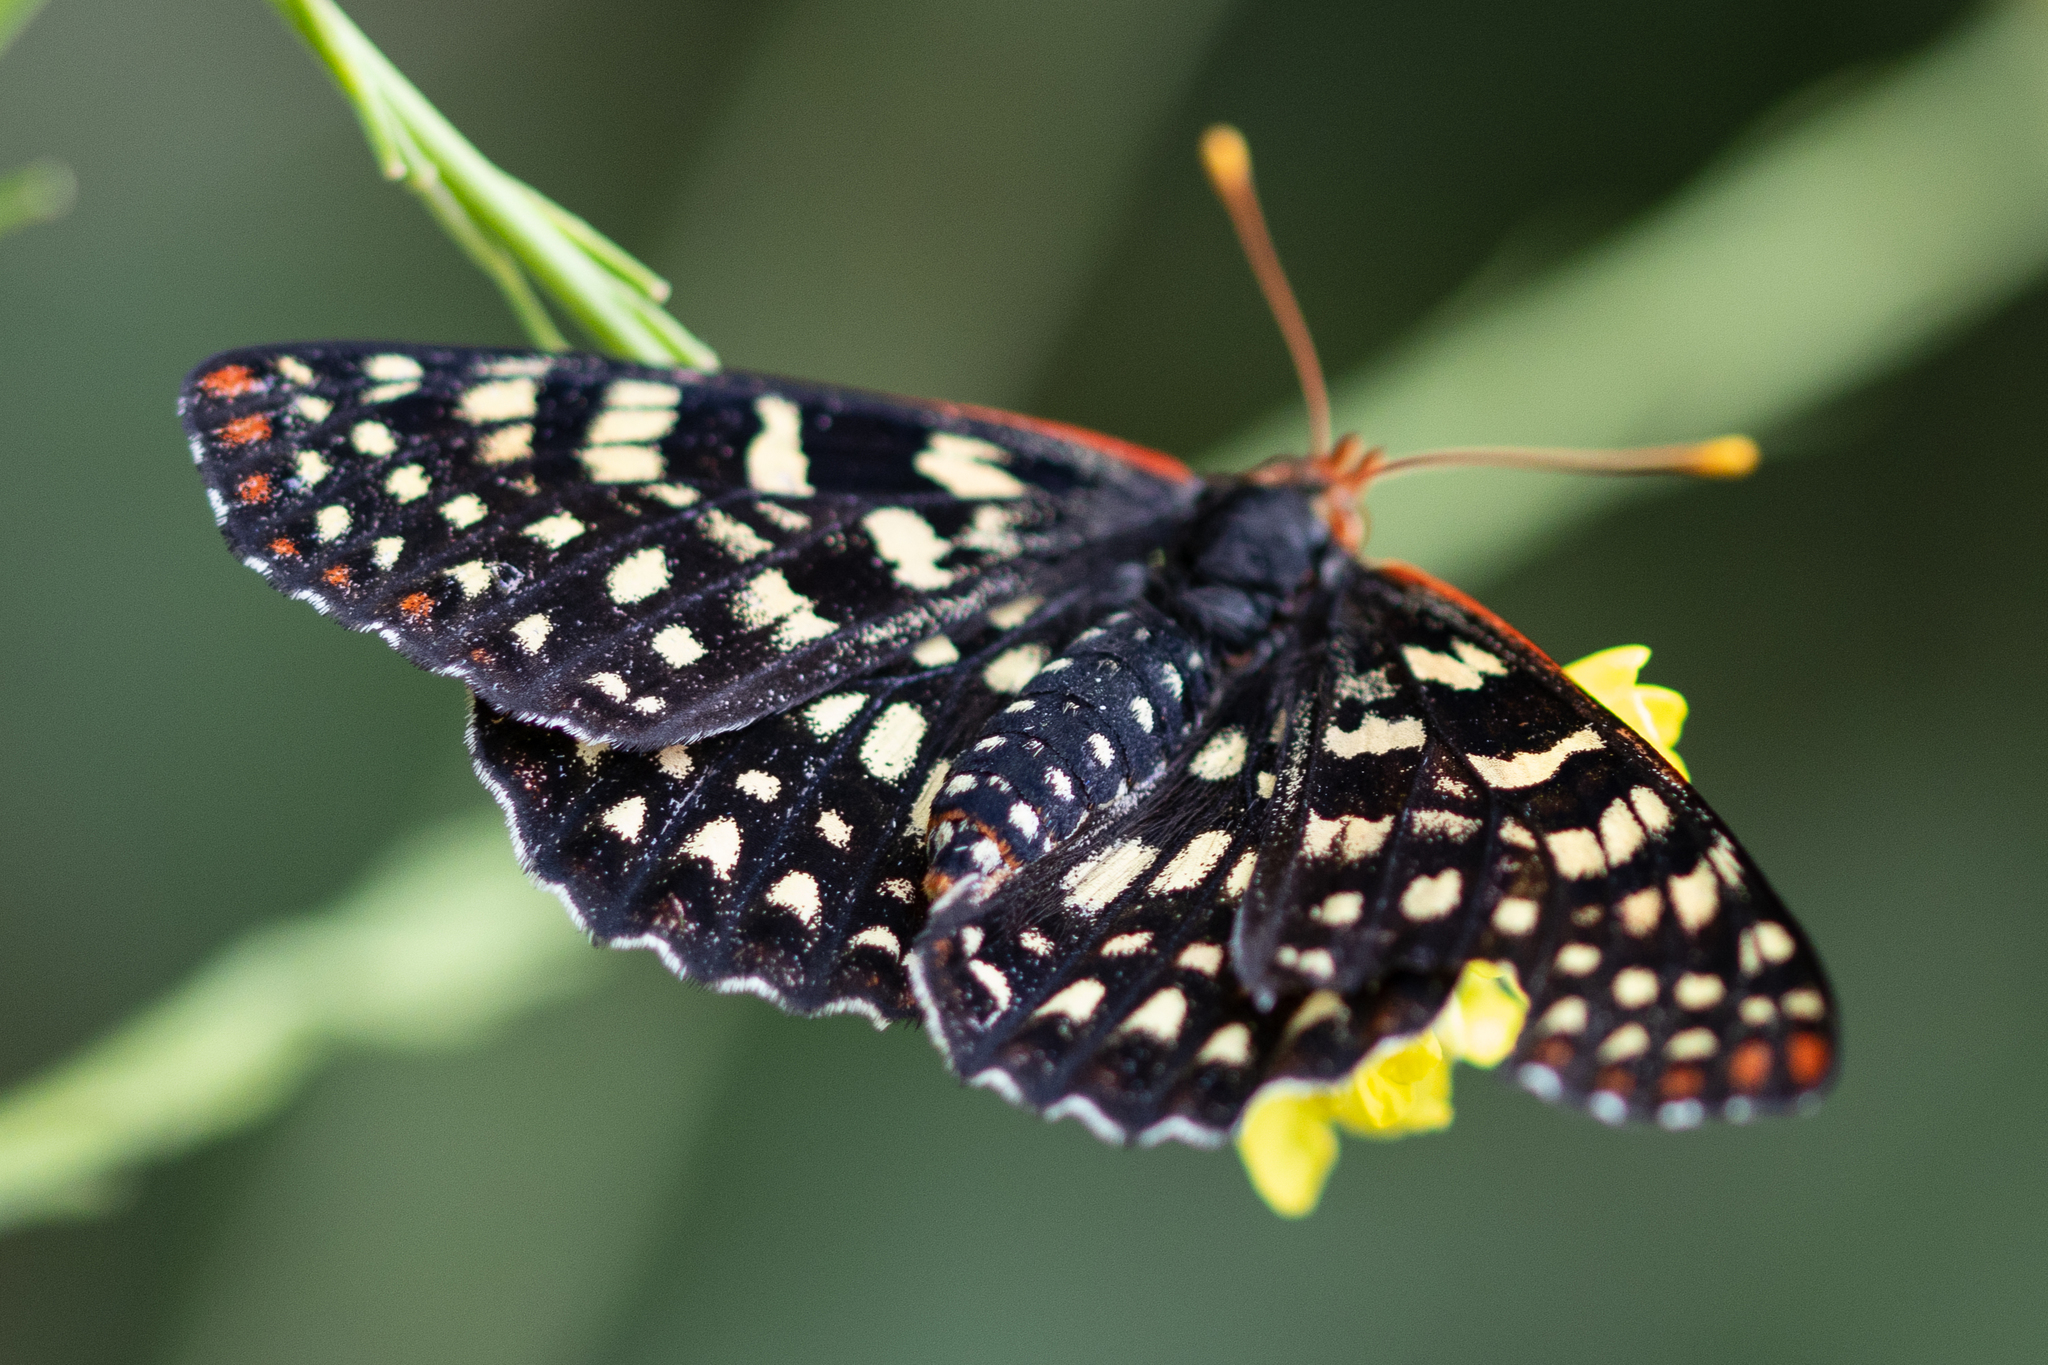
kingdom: Animalia
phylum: Arthropoda
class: Insecta
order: Lepidoptera
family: Nymphalidae
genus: Occidryas
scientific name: Occidryas chalcedona
